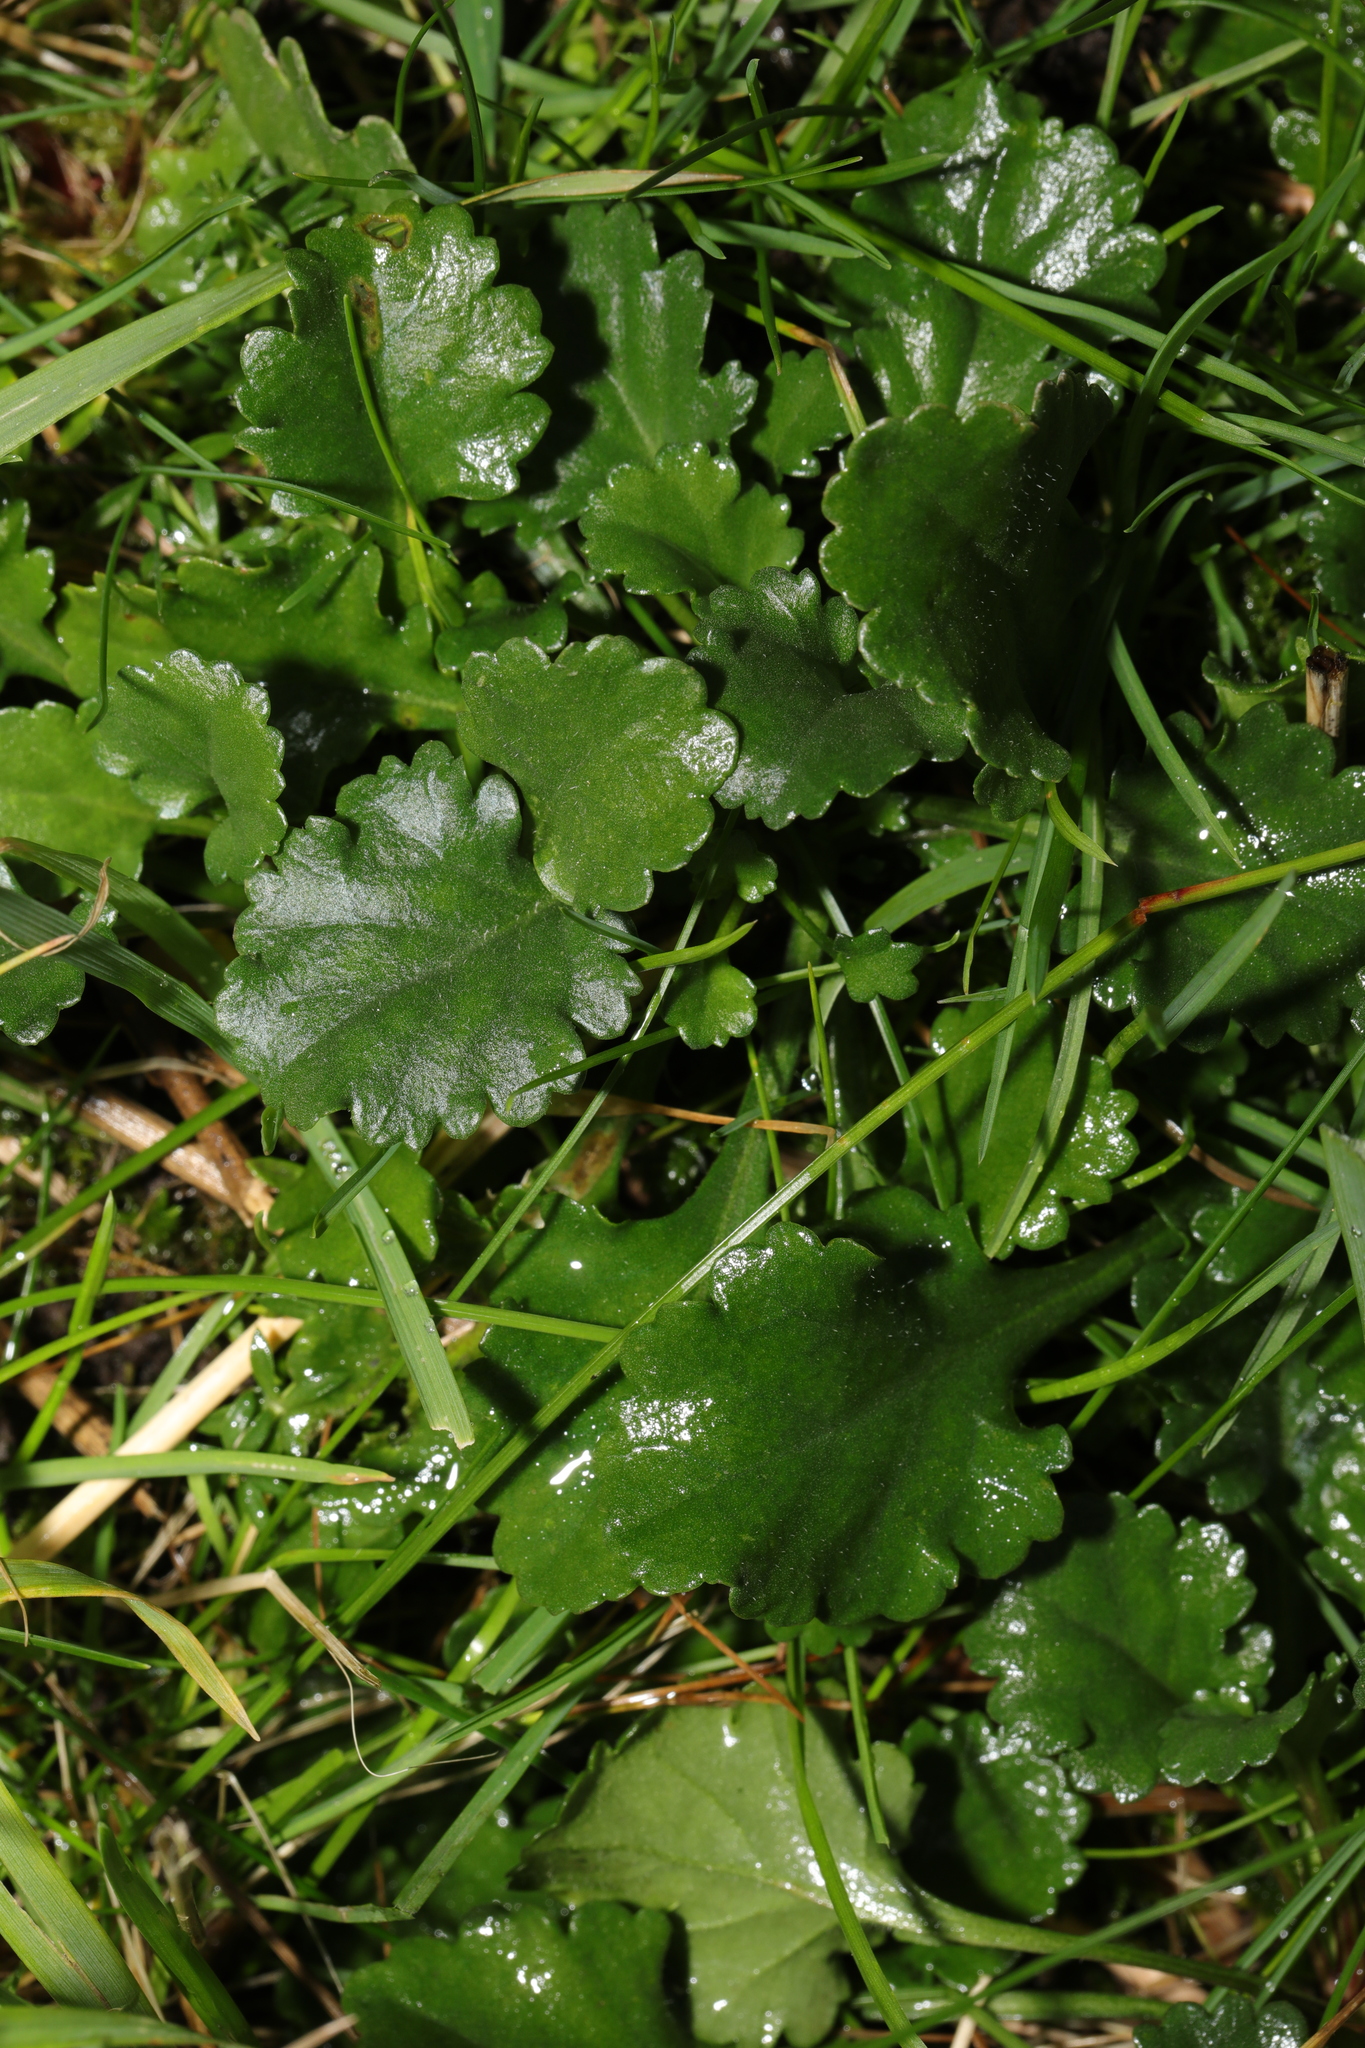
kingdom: Plantae
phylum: Tracheophyta
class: Magnoliopsida
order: Asterales
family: Asteraceae
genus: Leucanthemum
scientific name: Leucanthemum vulgare
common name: Oxeye daisy
